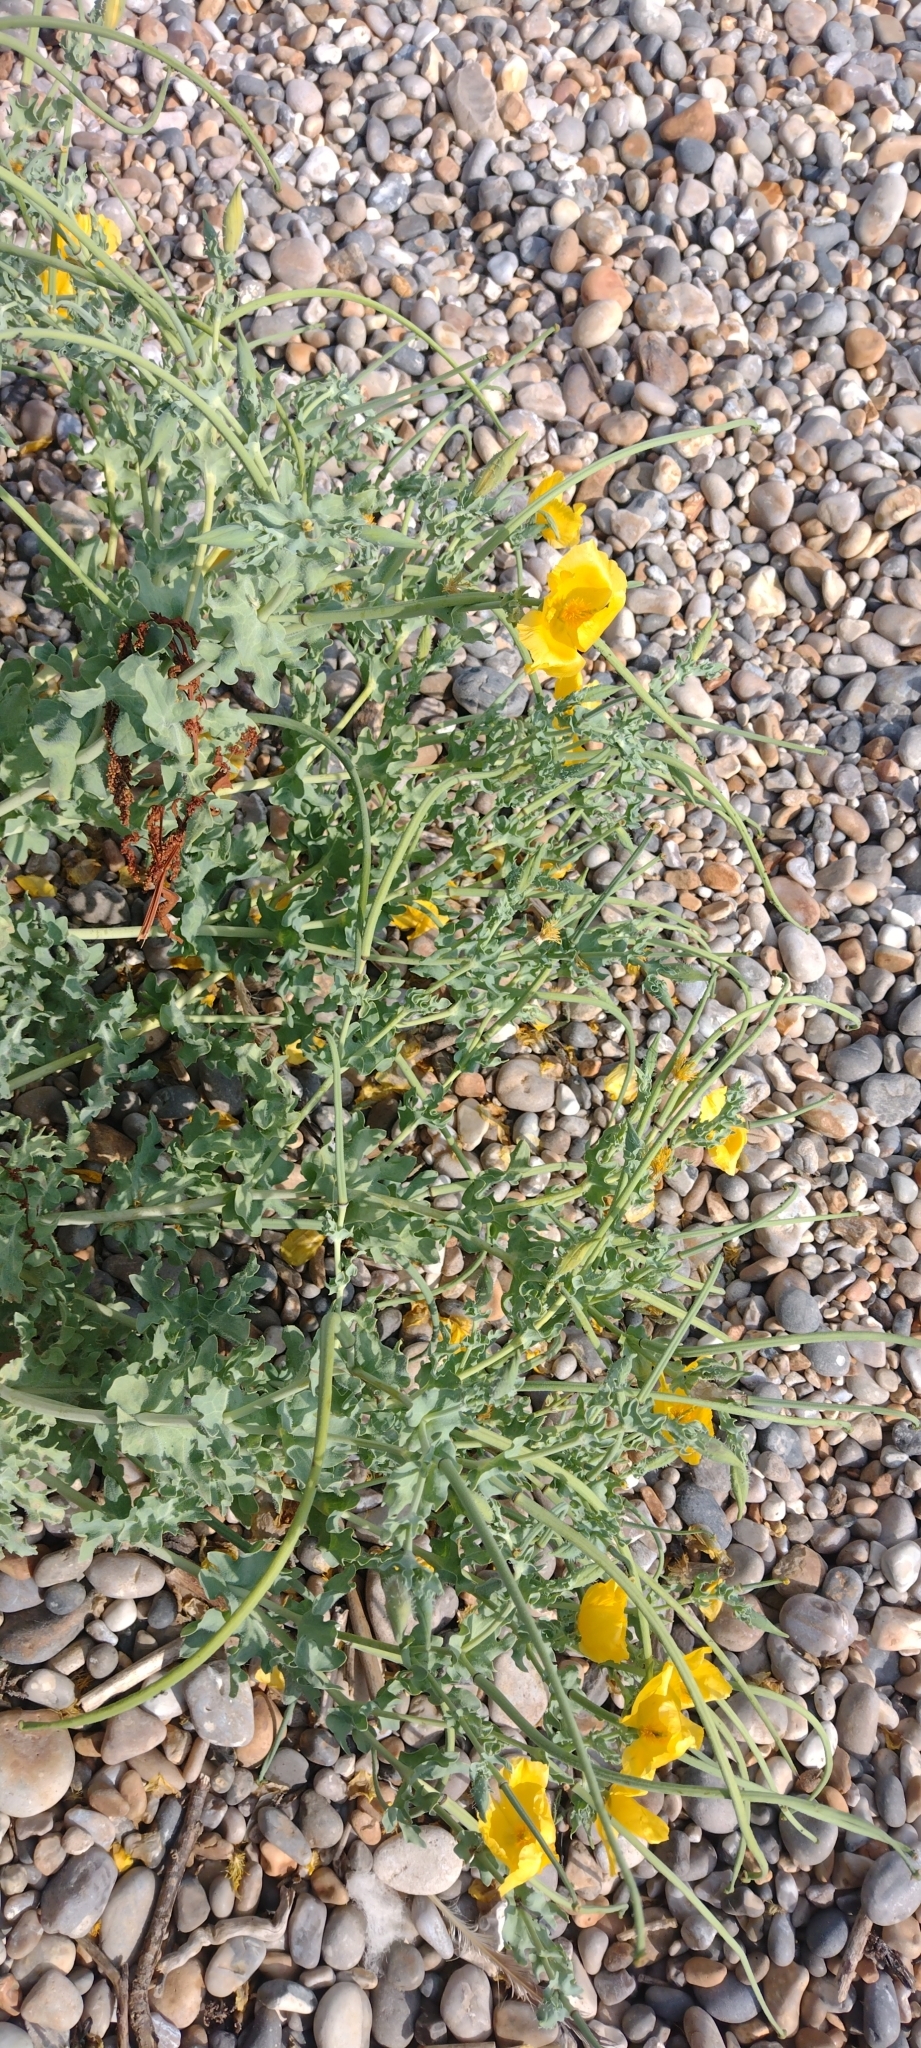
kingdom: Plantae
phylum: Tracheophyta
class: Magnoliopsida
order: Ranunculales
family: Papaveraceae
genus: Glaucium
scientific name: Glaucium flavum
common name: Yellow horned-poppy
